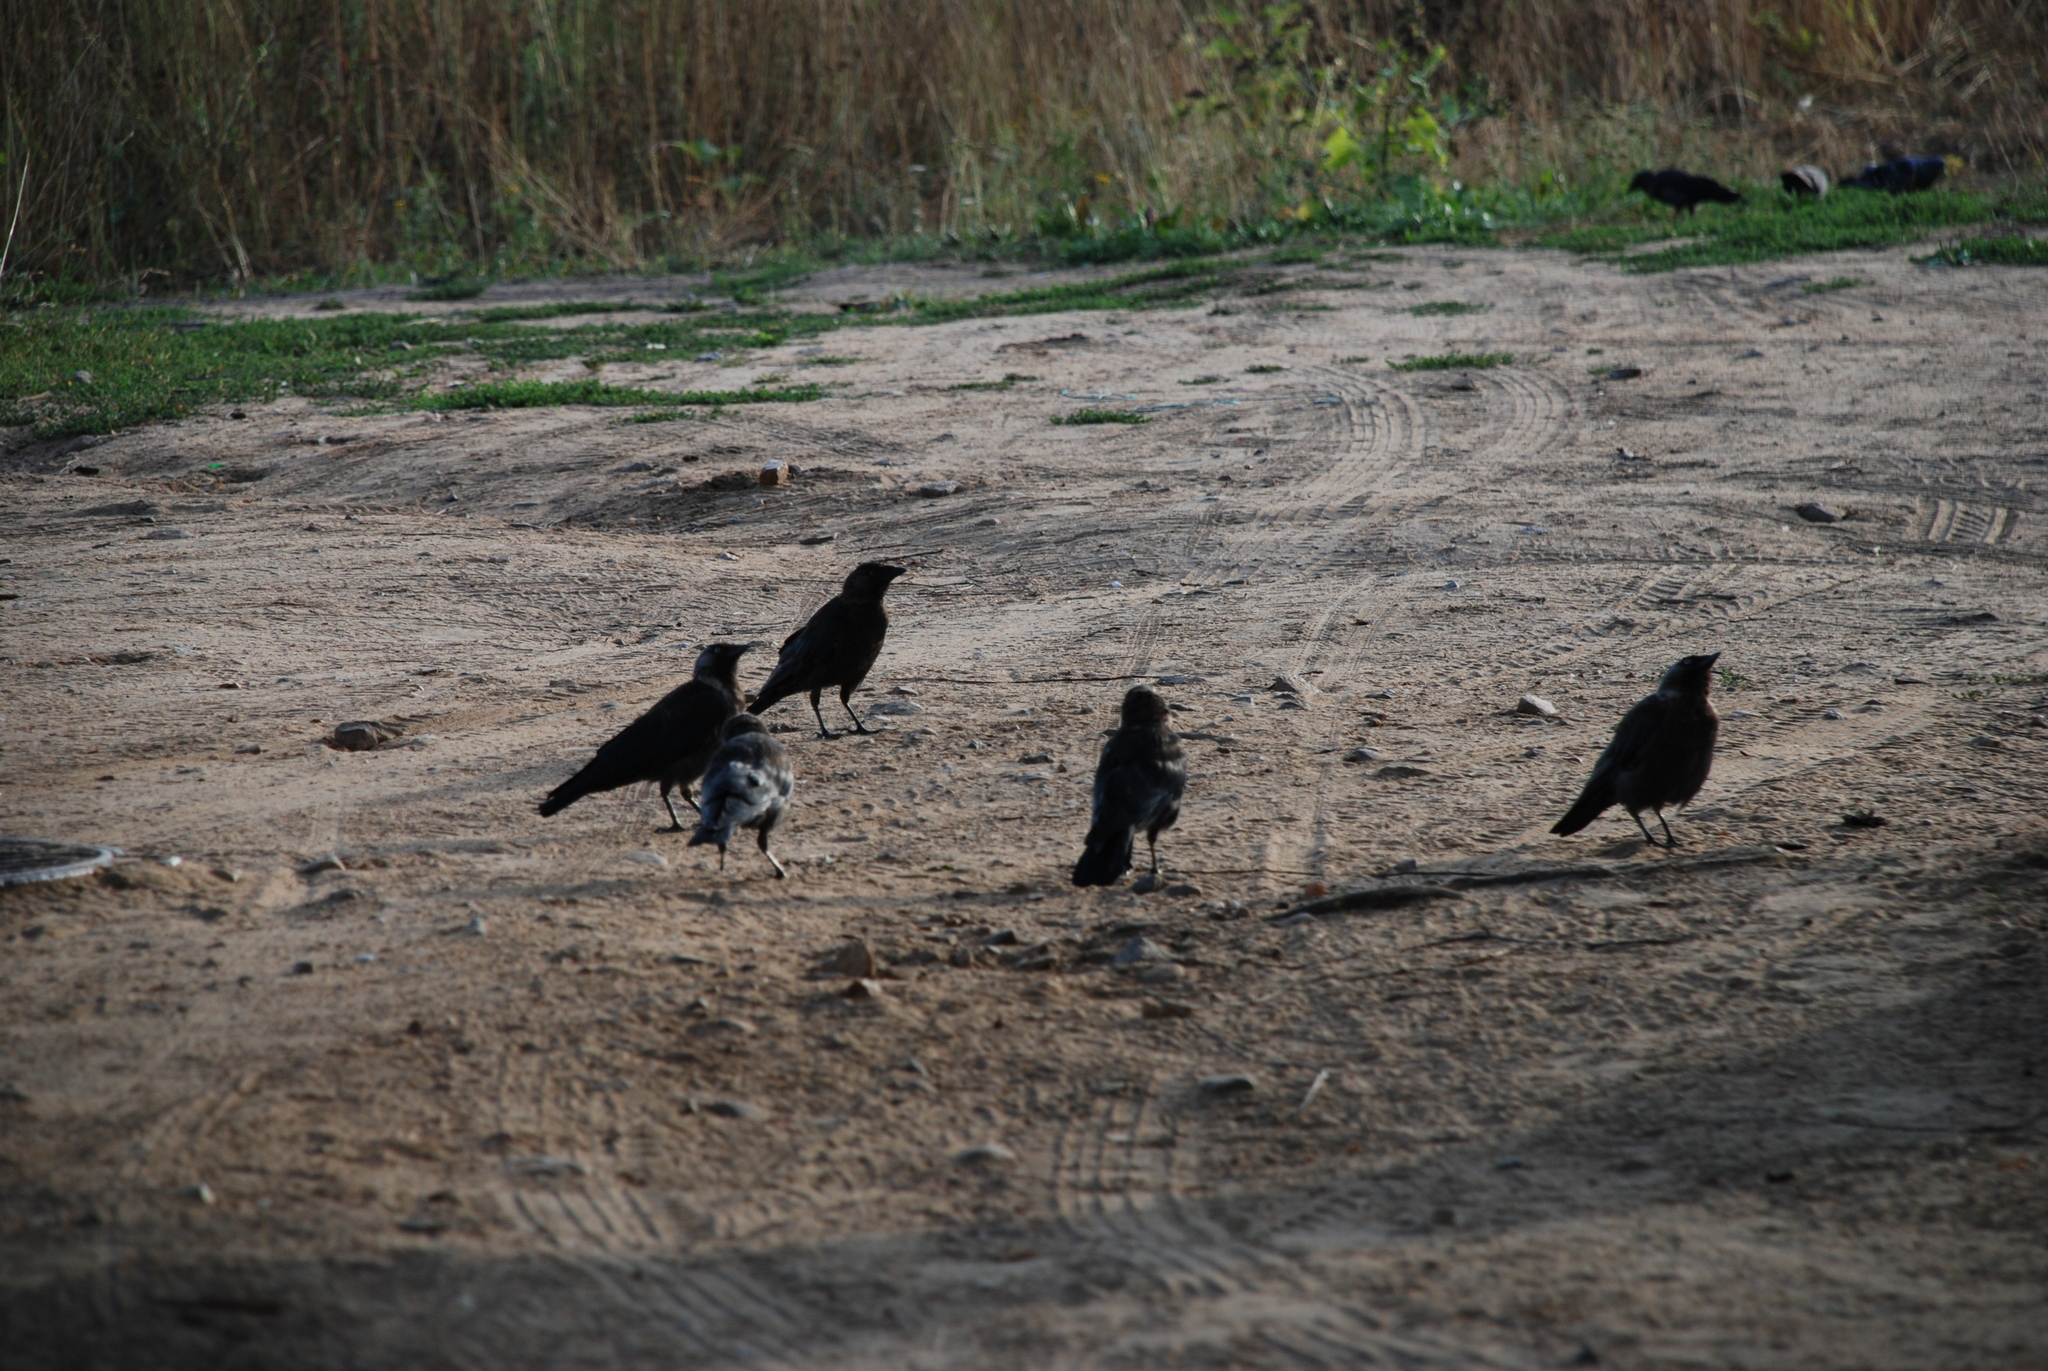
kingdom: Animalia
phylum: Chordata
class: Aves
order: Passeriformes
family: Corvidae
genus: Coloeus
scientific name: Coloeus monedula
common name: Western jackdaw
